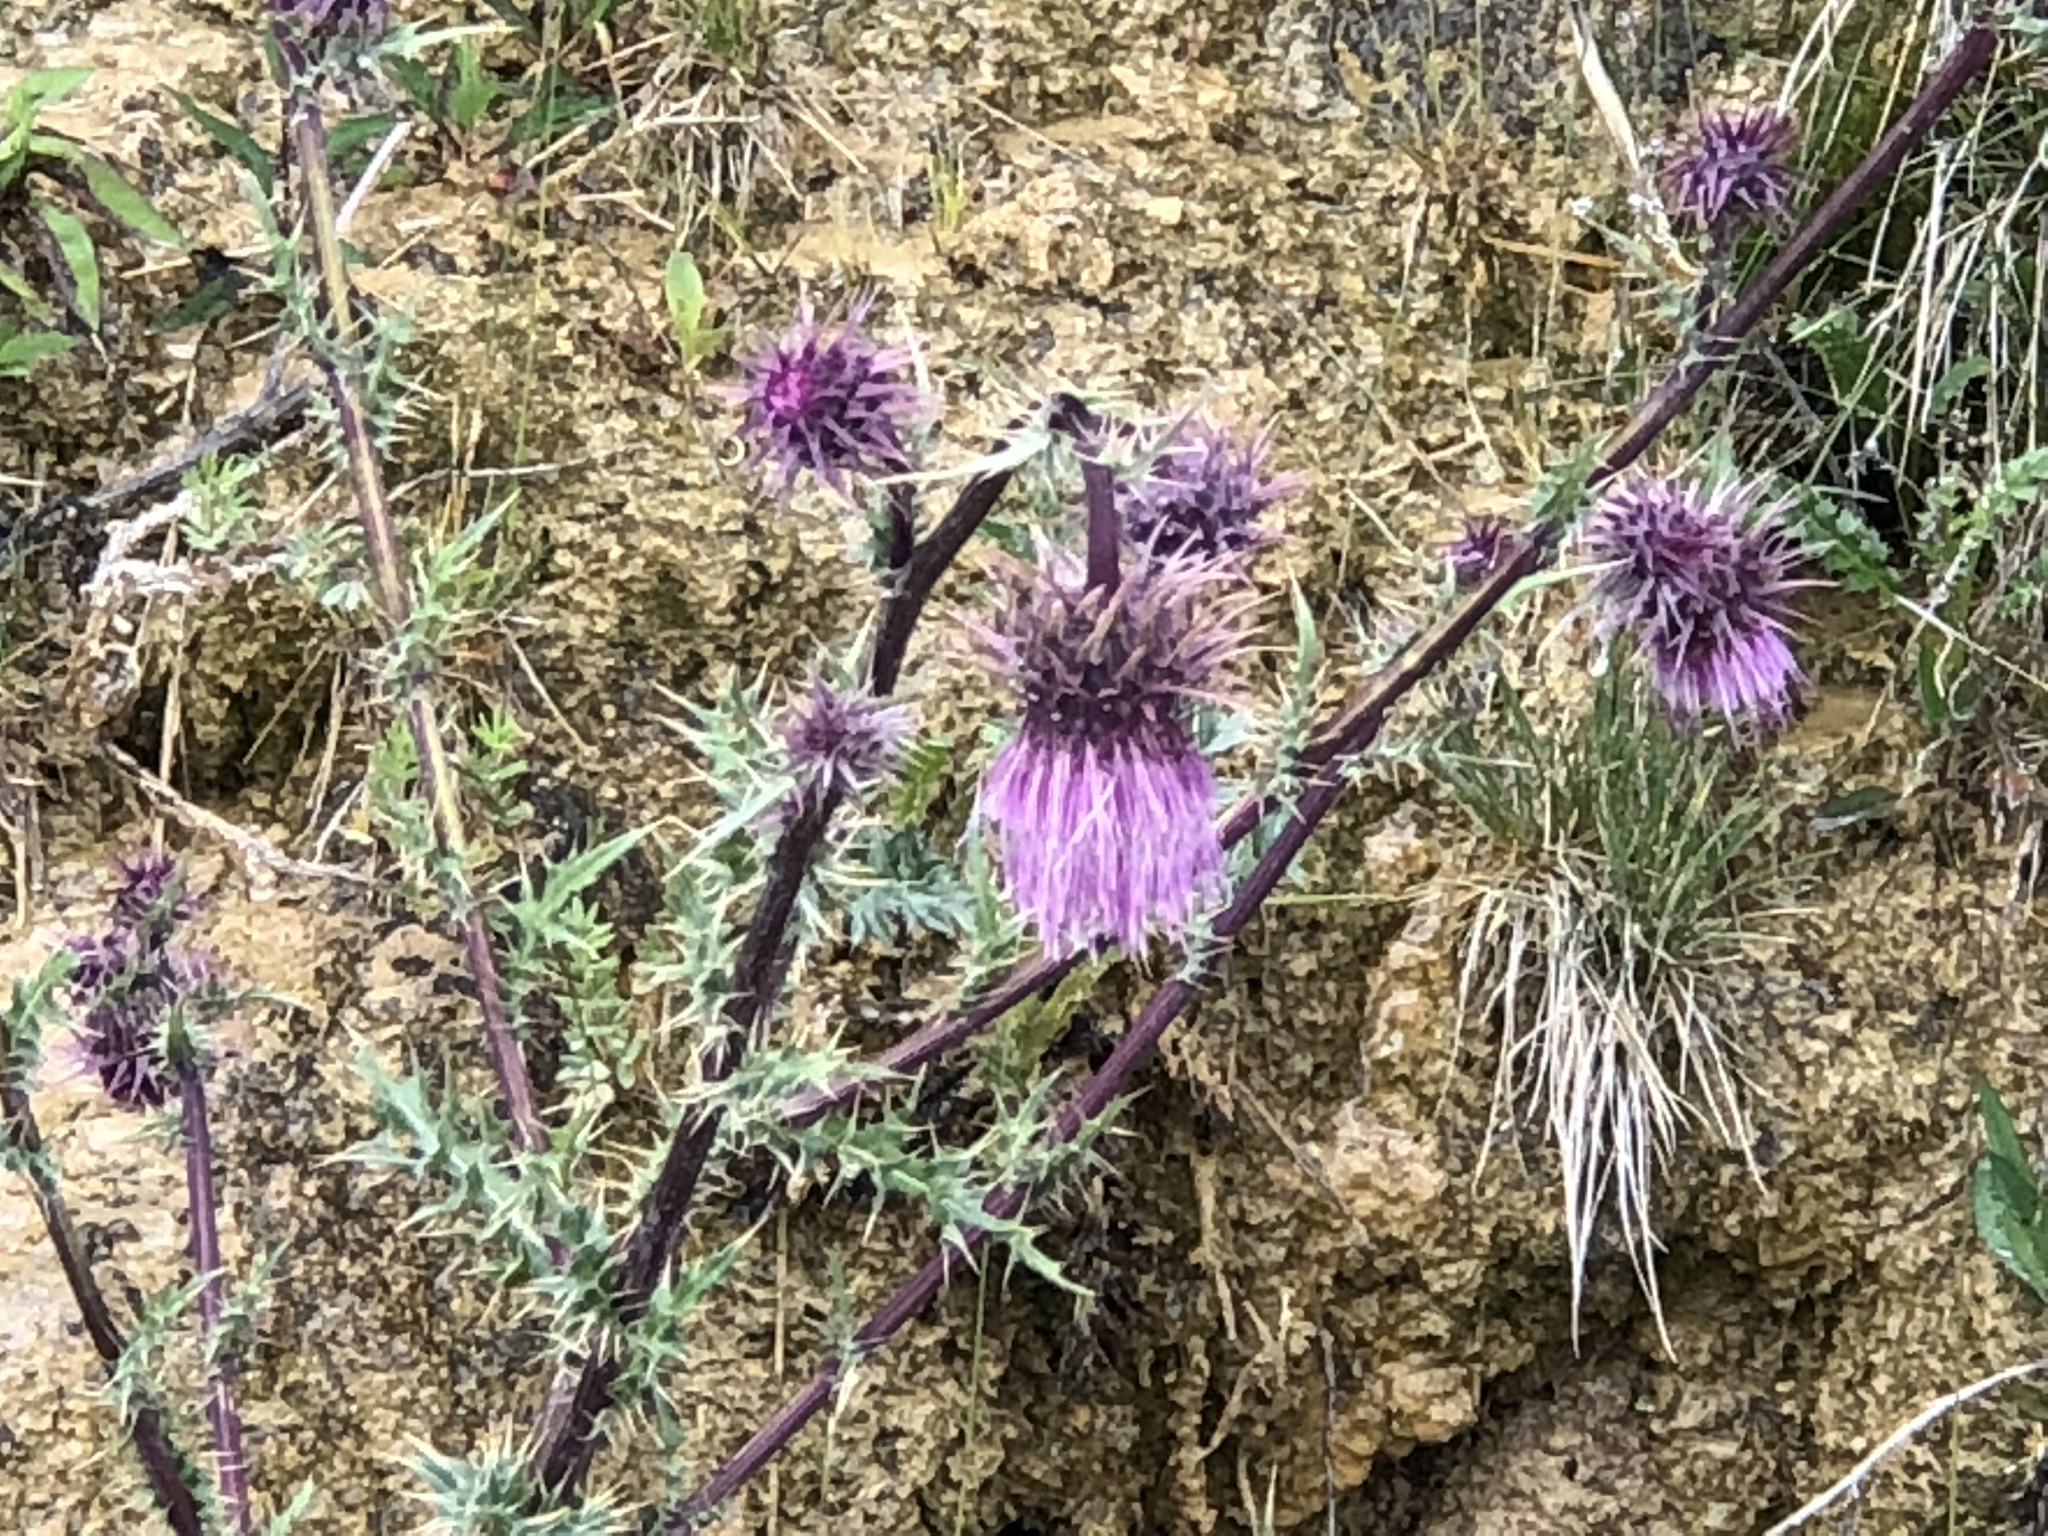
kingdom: Plantae
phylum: Tracheophyta
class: Magnoliopsida
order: Asterales
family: Asteraceae
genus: Cirsium
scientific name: Cirsium vinaceum
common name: Sacramento mountain thistle
